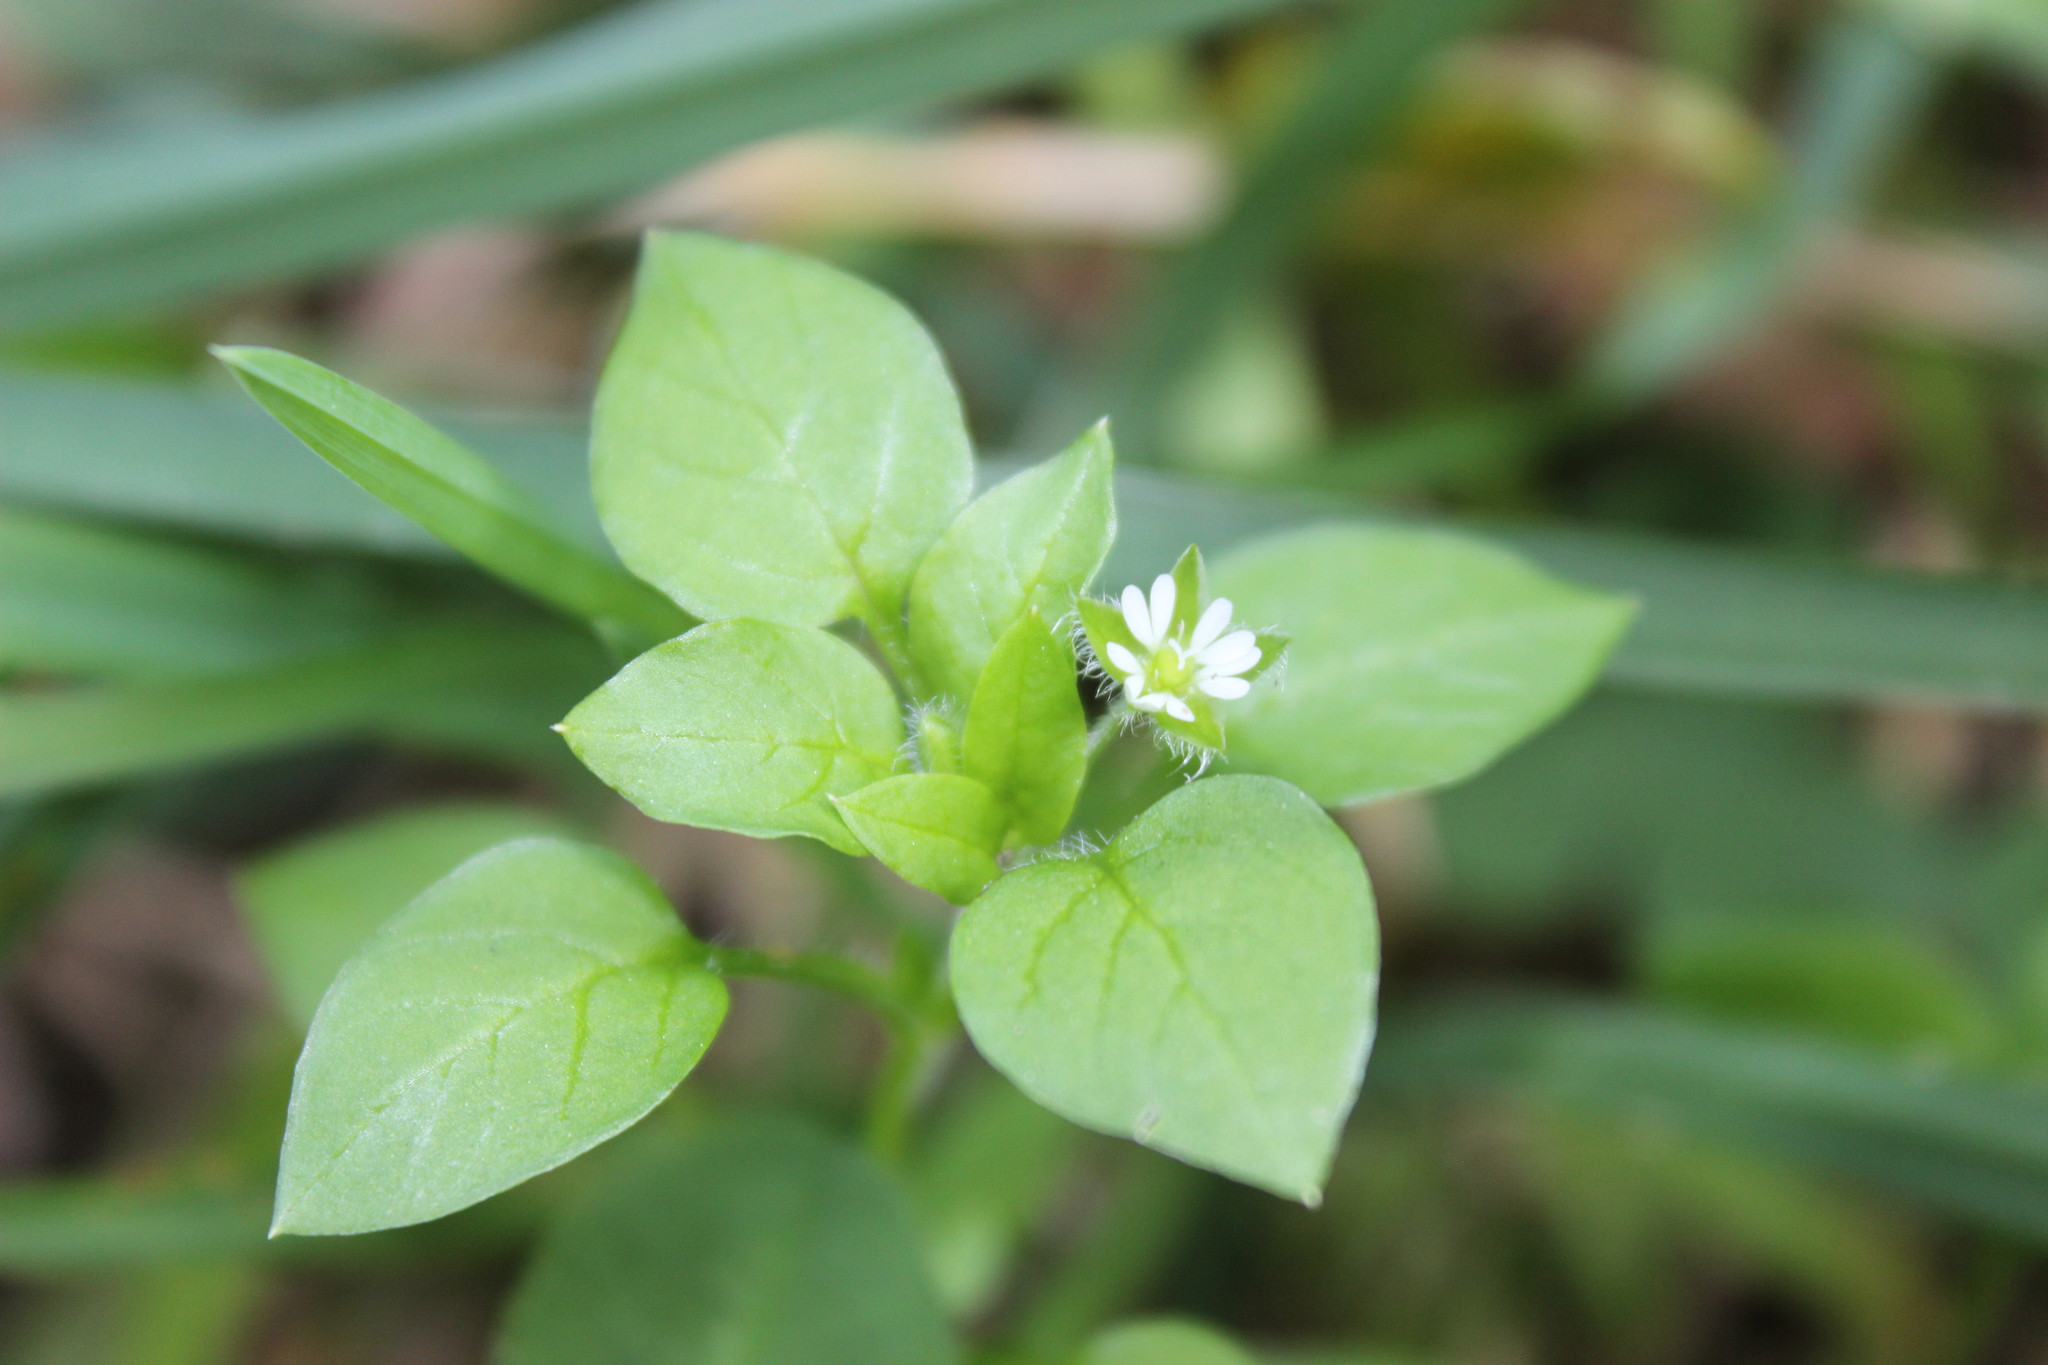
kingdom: Plantae
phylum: Tracheophyta
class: Magnoliopsida
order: Caryophyllales
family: Caryophyllaceae
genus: Stellaria
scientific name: Stellaria media
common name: Common chickweed
